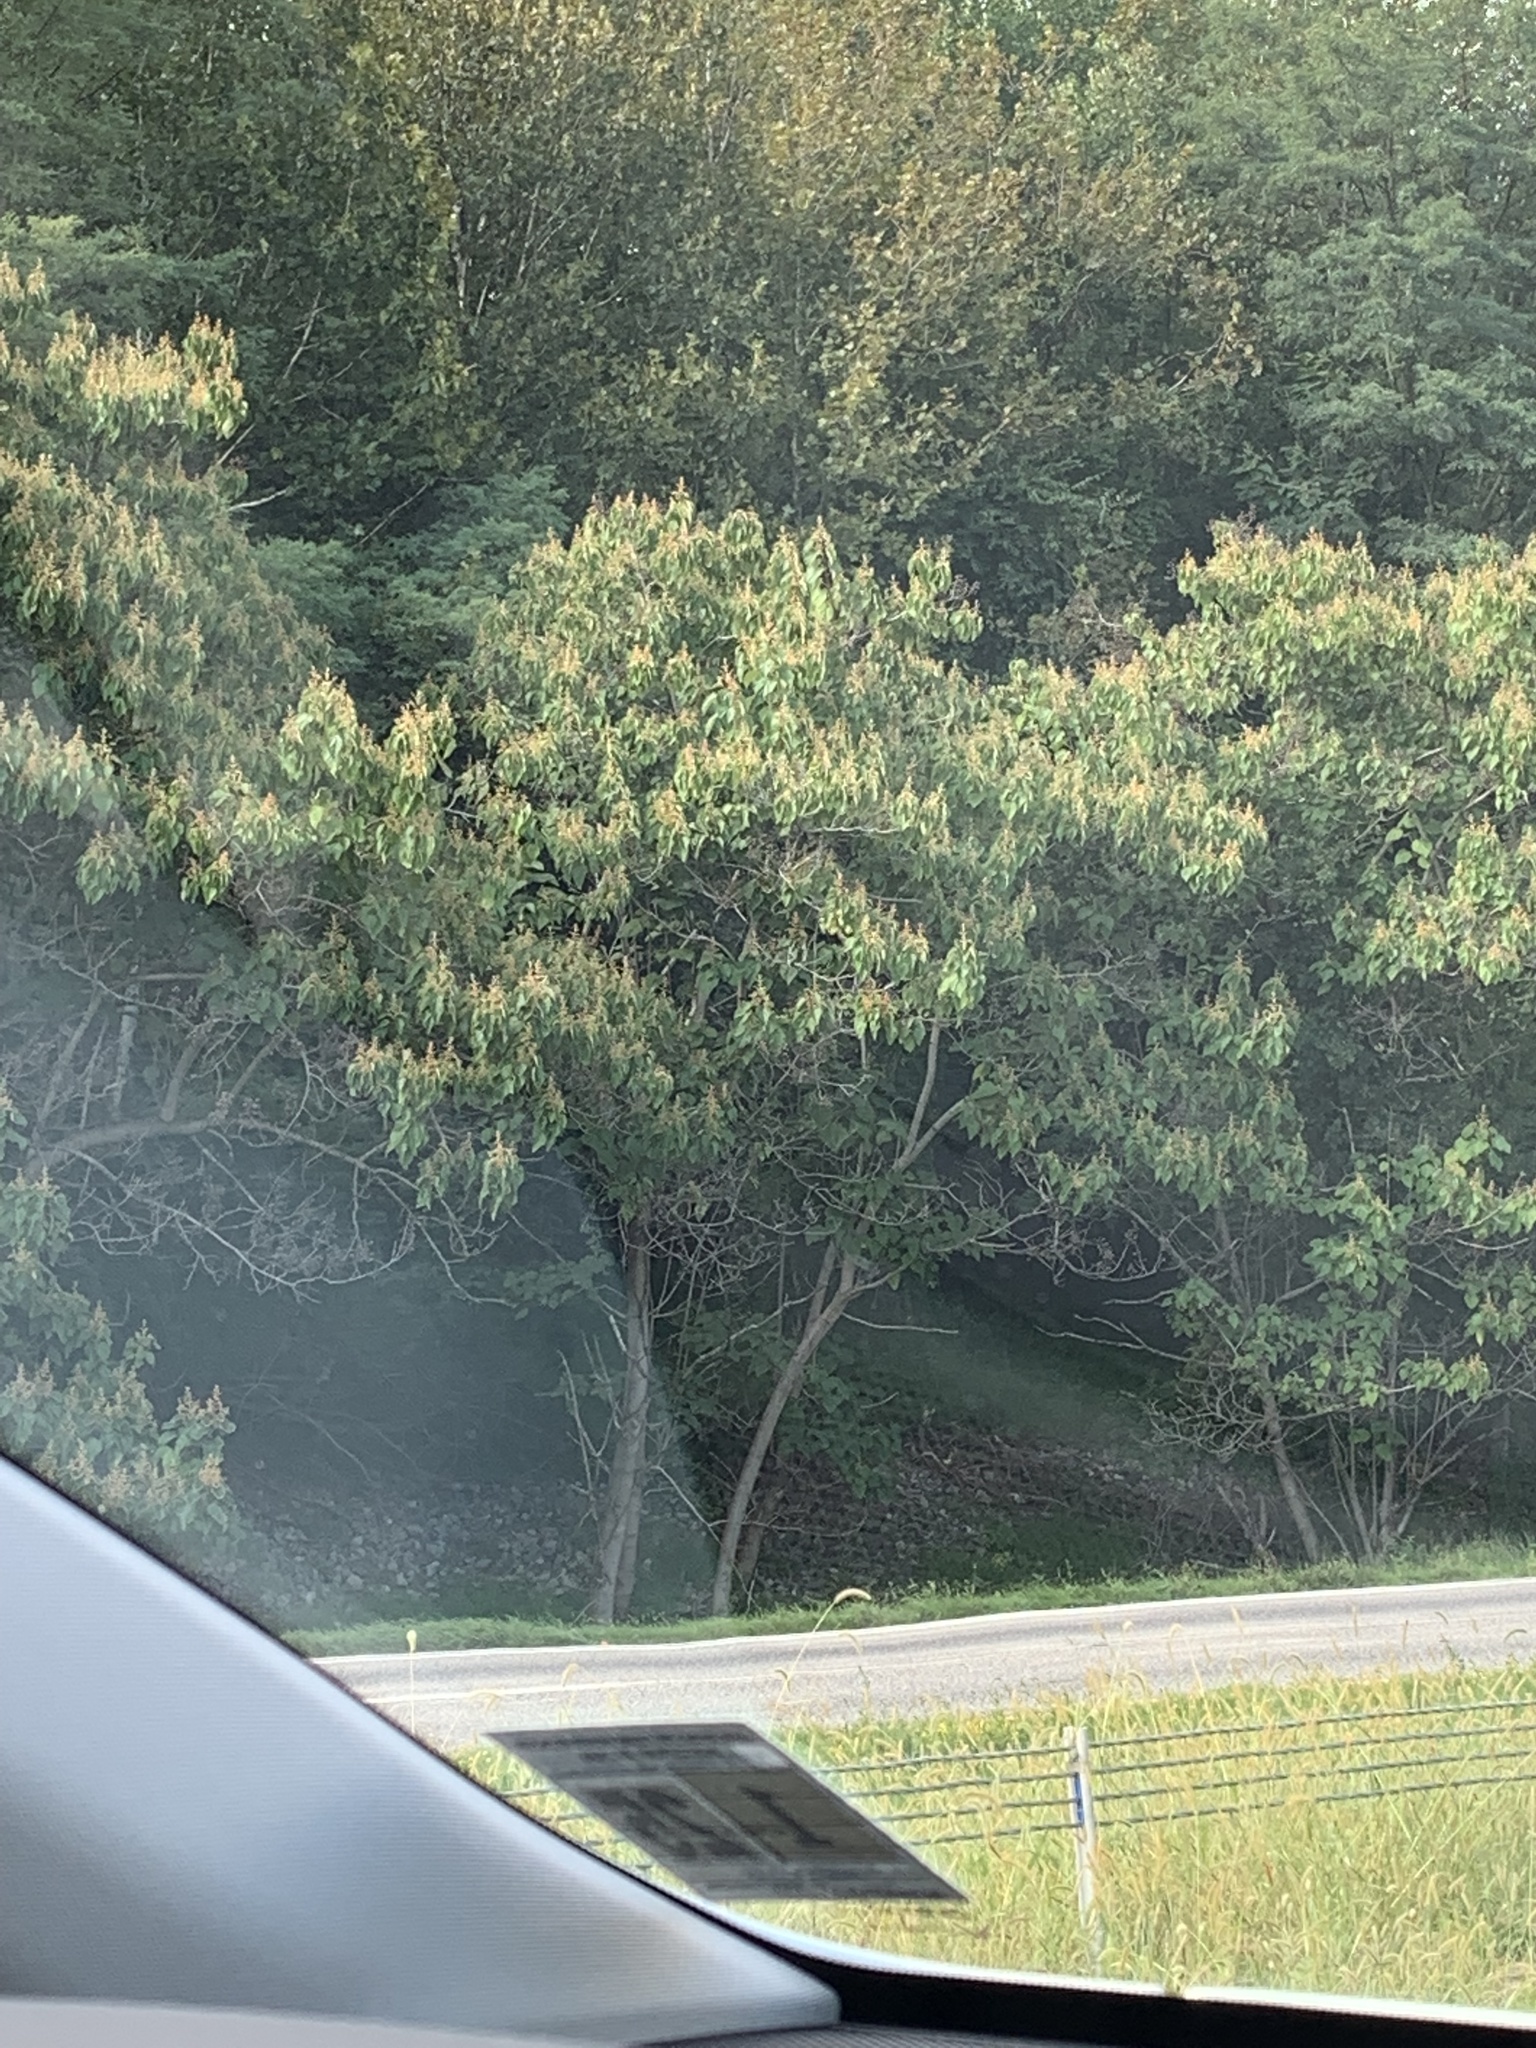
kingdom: Plantae
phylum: Tracheophyta
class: Magnoliopsida
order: Lamiales
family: Paulowniaceae
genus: Paulownia
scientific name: Paulownia tomentosa
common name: Foxglove-tree
